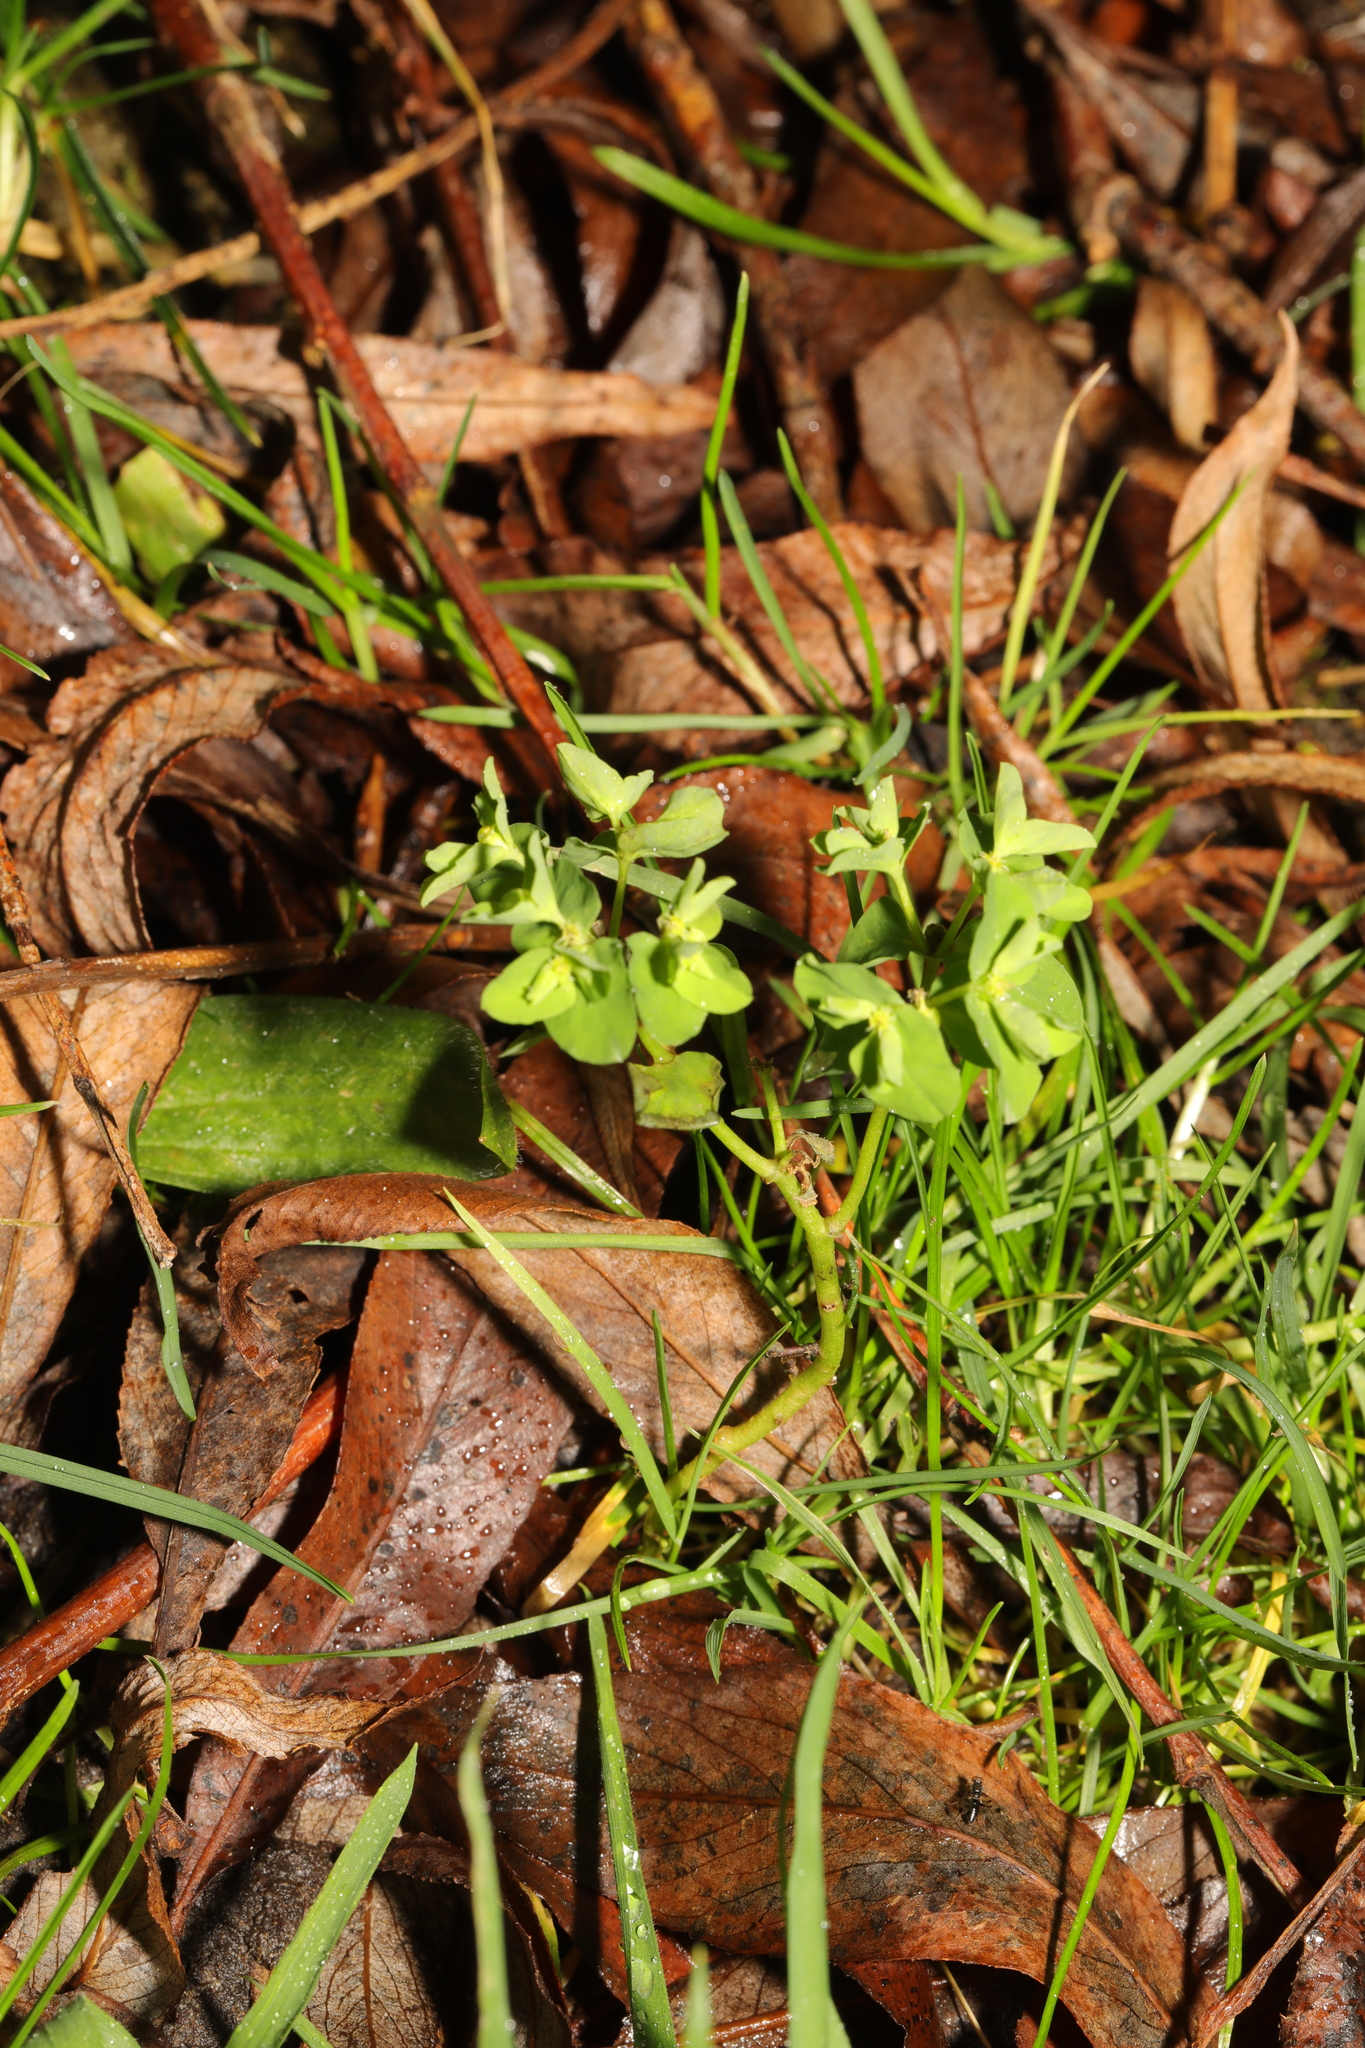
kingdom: Plantae
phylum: Tracheophyta
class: Magnoliopsida
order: Malpighiales
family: Euphorbiaceae
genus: Euphorbia
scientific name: Euphorbia peplus
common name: Petty spurge
